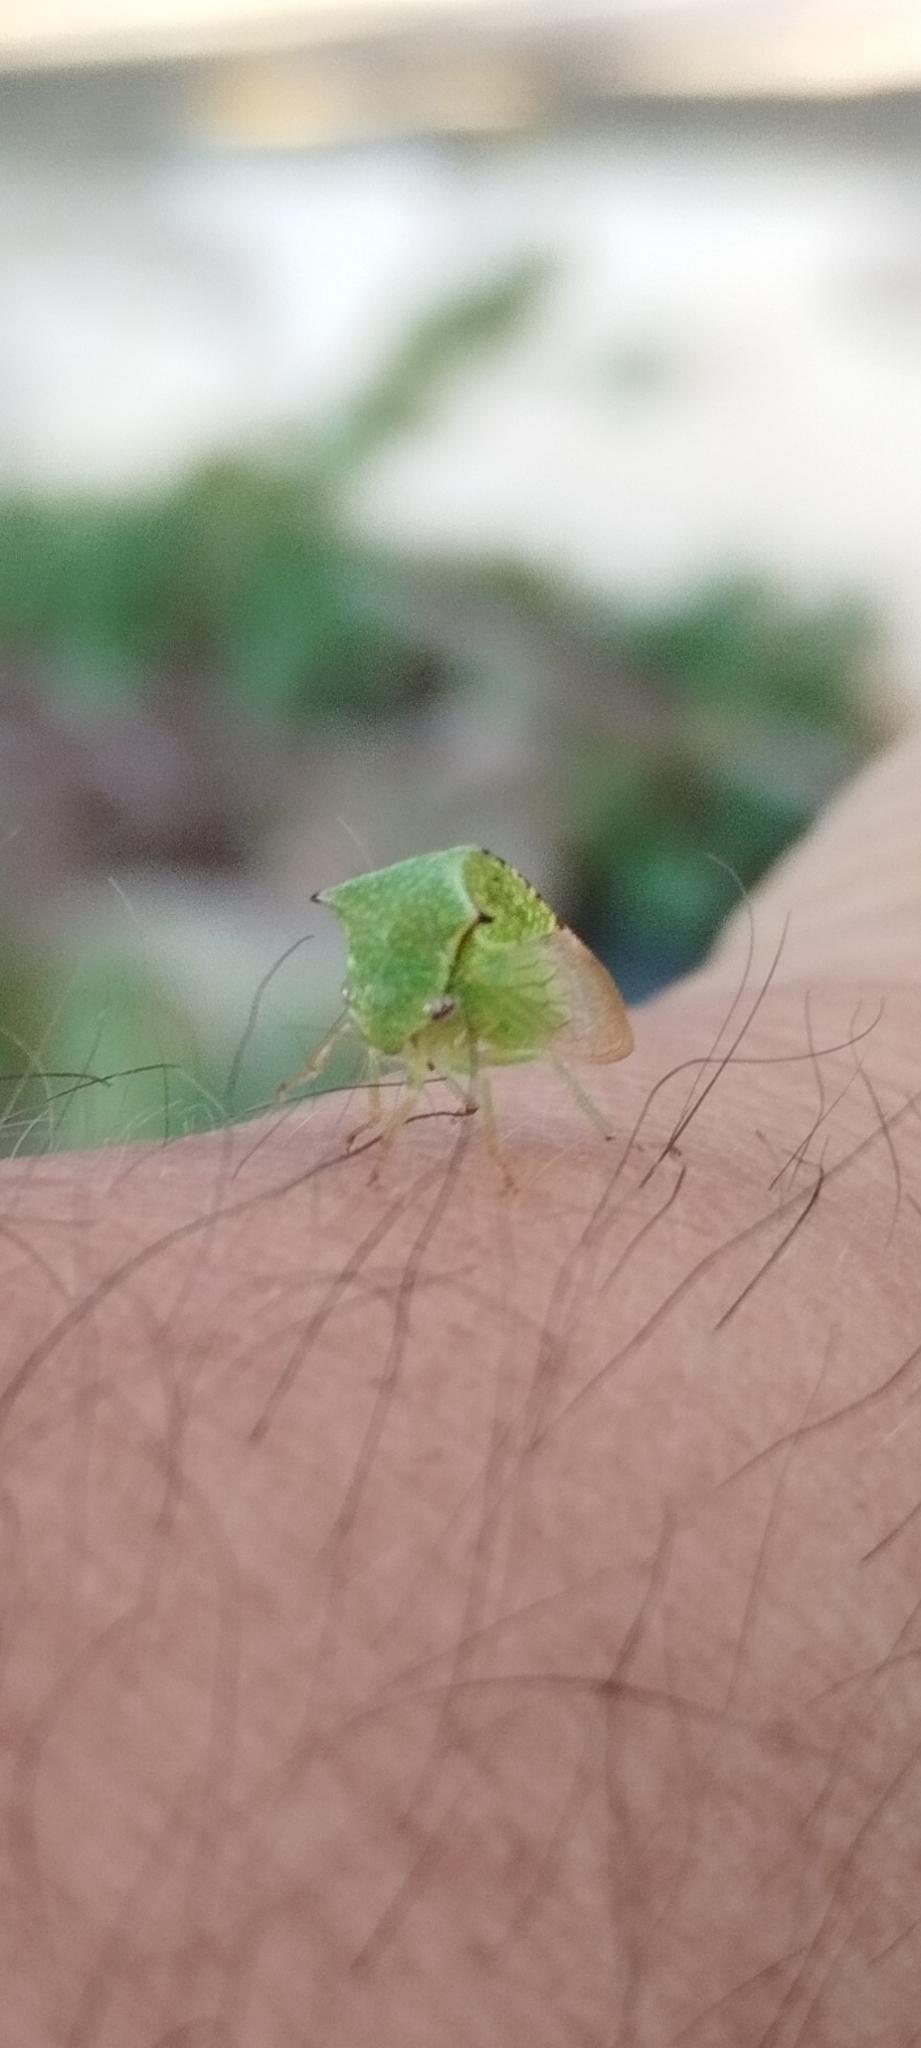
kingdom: Animalia
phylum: Arthropoda
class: Insecta
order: Hemiptera
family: Membracidae
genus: Stictocephala
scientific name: Stictocephala bisonia
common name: American buffalo treehopper
